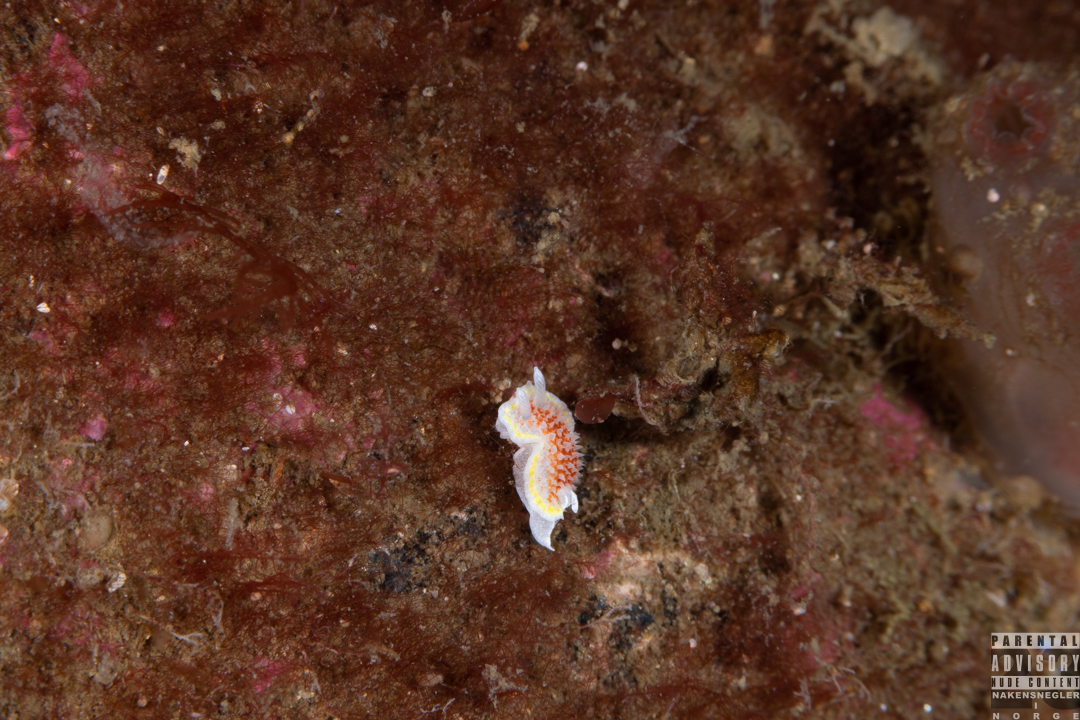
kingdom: Animalia
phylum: Mollusca
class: Gastropoda
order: Nudibranchia
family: Calycidorididae
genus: Diaphorodoris
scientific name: Diaphorodoris luteocincta
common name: Fried egg nudibranch
